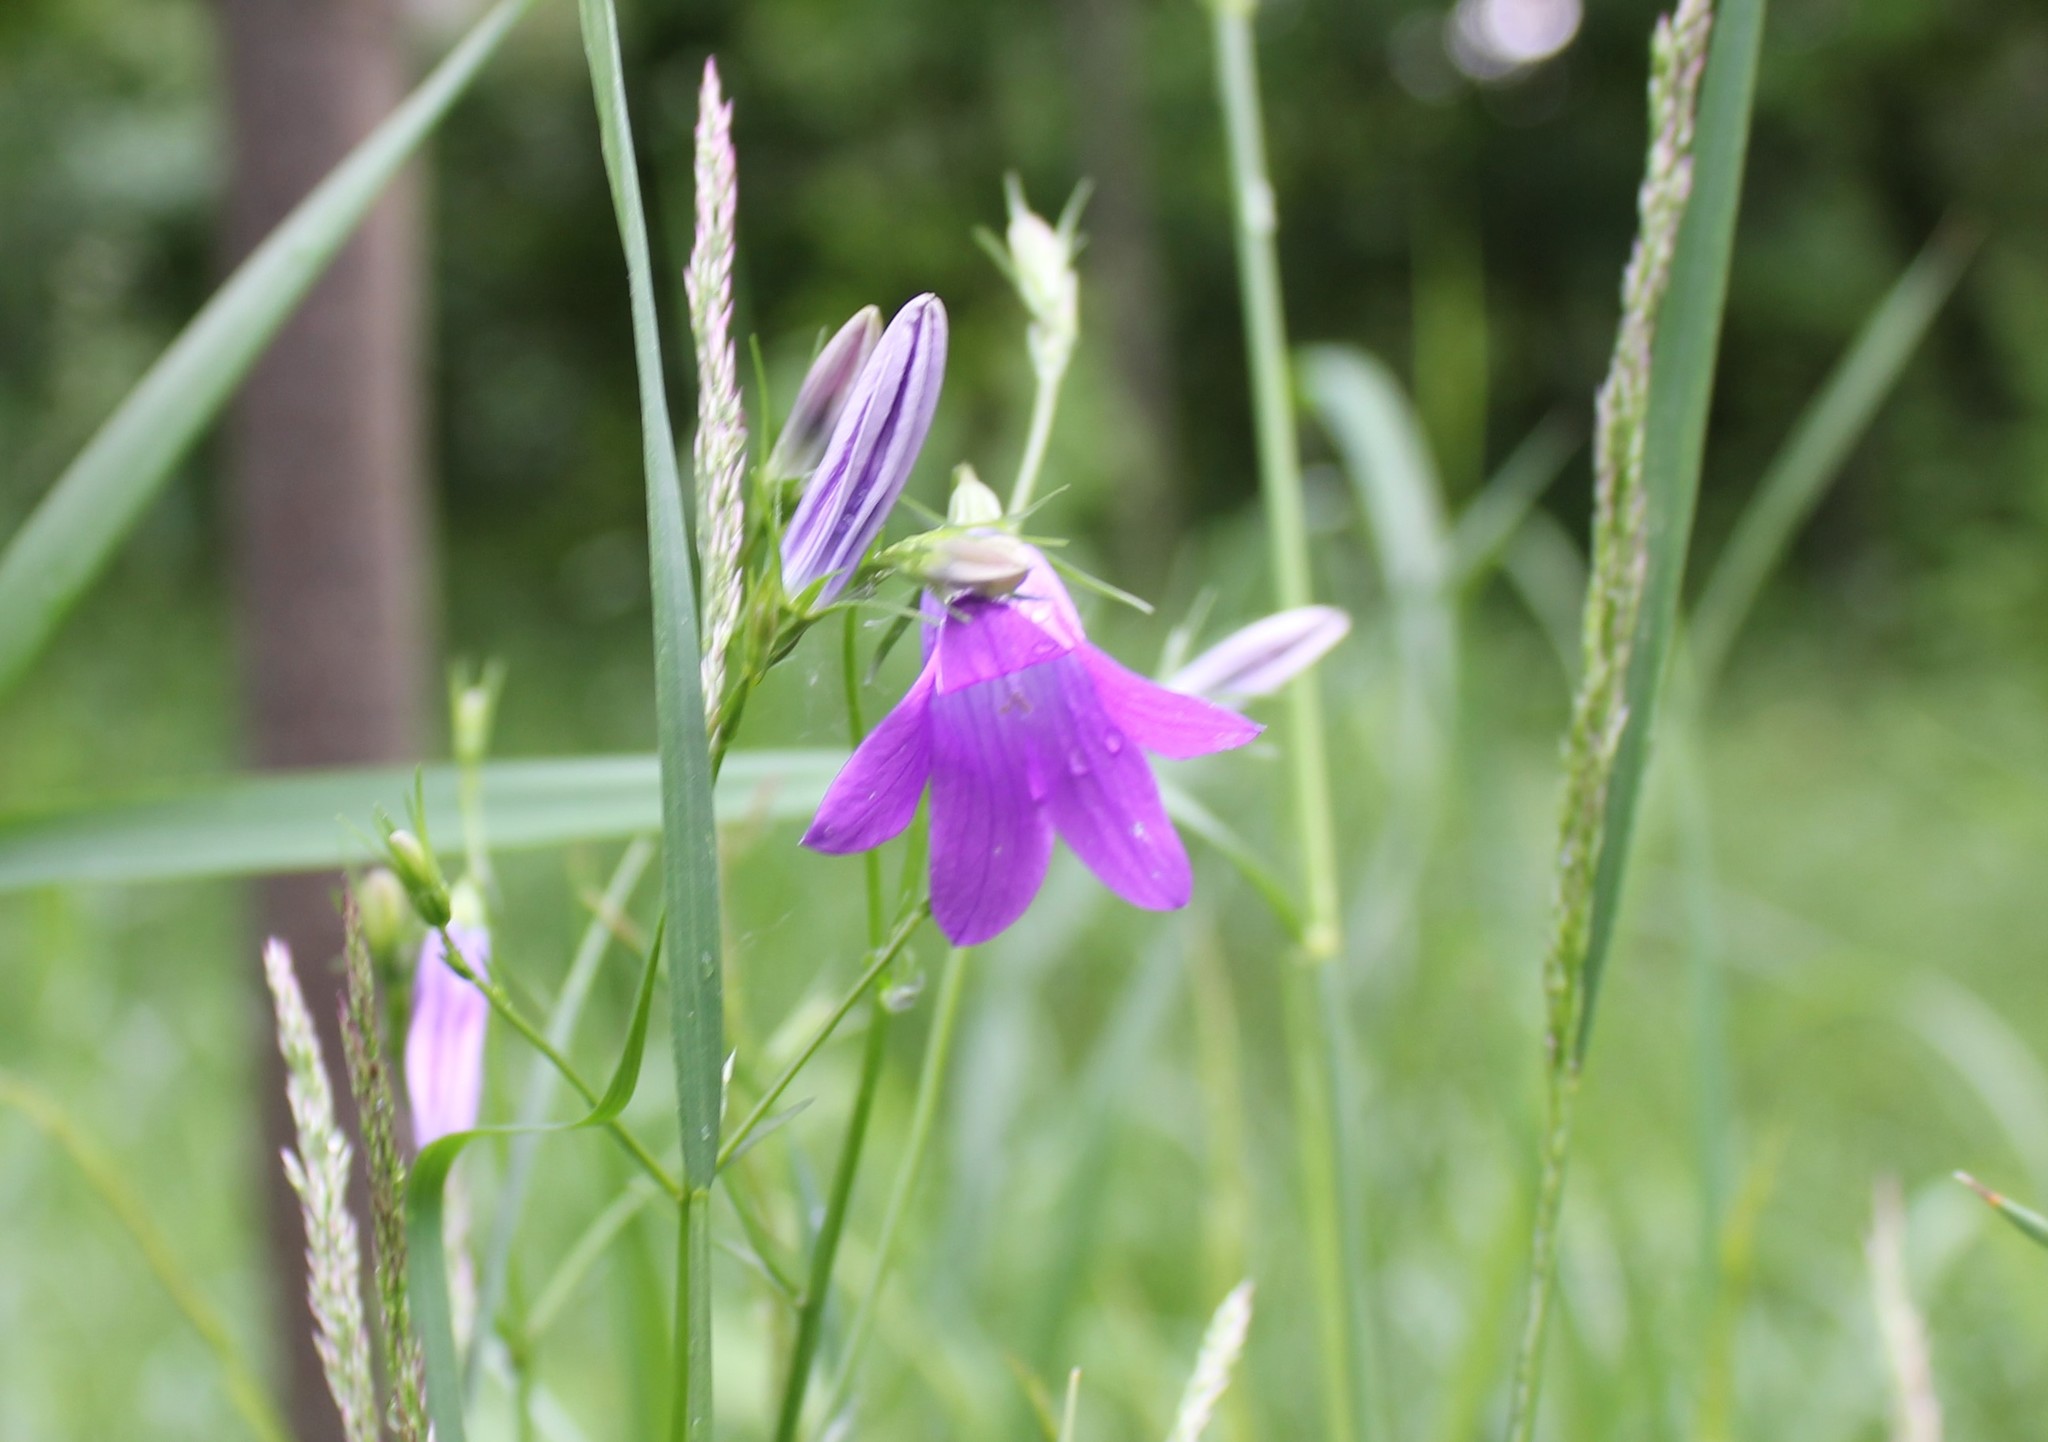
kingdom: Plantae
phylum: Tracheophyta
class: Magnoliopsida
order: Asterales
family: Campanulaceae
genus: Campanula
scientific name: Campanula patula
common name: Spreading bellflower
